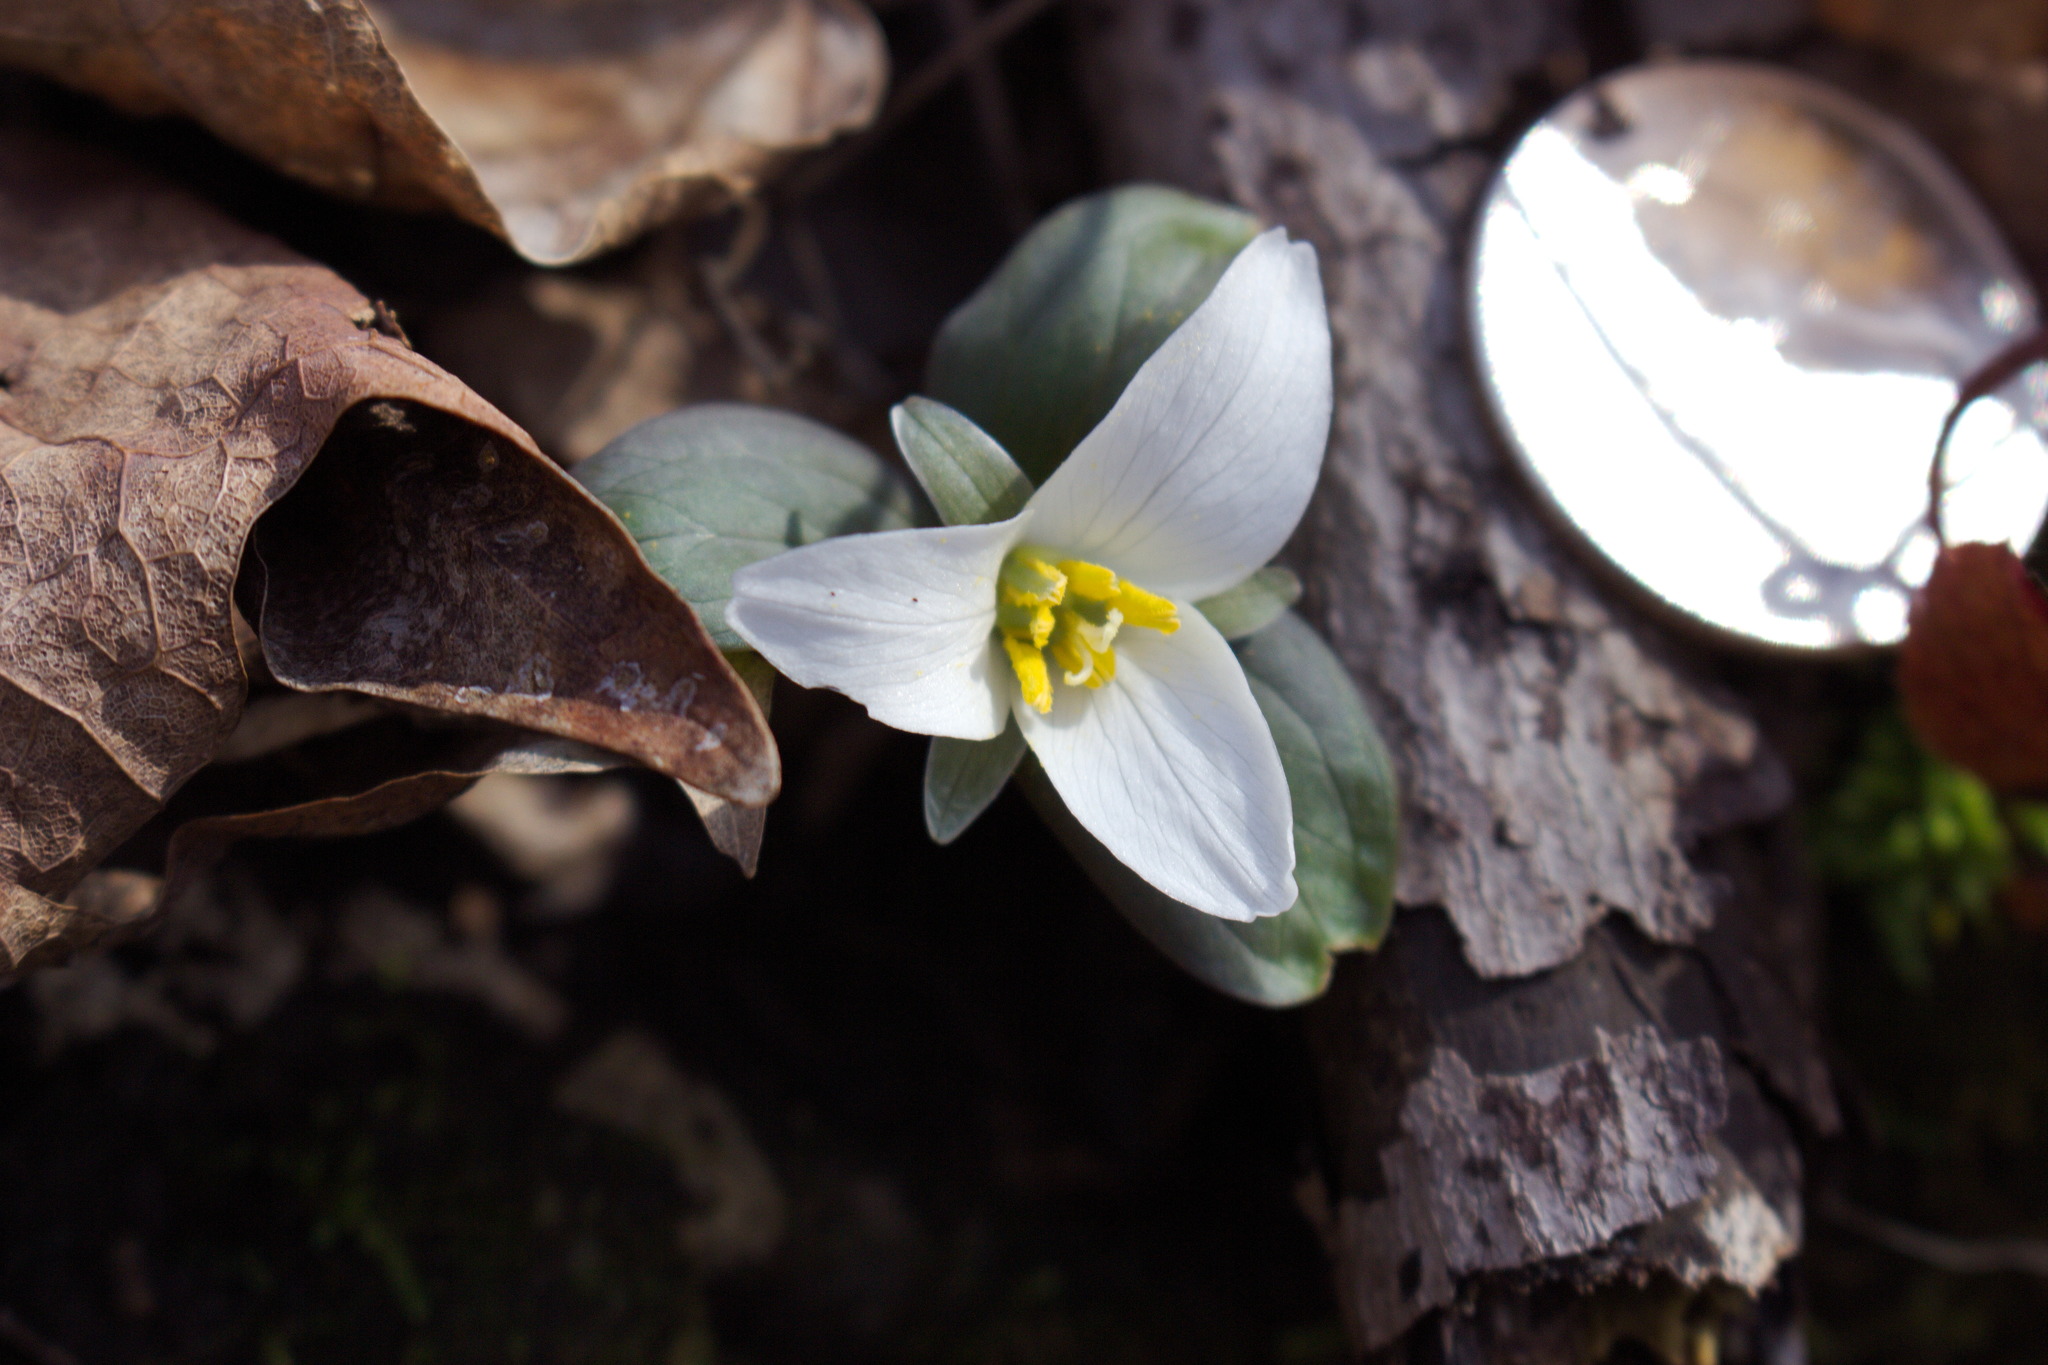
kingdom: Plantae
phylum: Tracheophyta
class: Liliopsida
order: Liliales
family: Melanthiaceae
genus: Trillium
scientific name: Trillium nivale
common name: Dwarf white trillium
